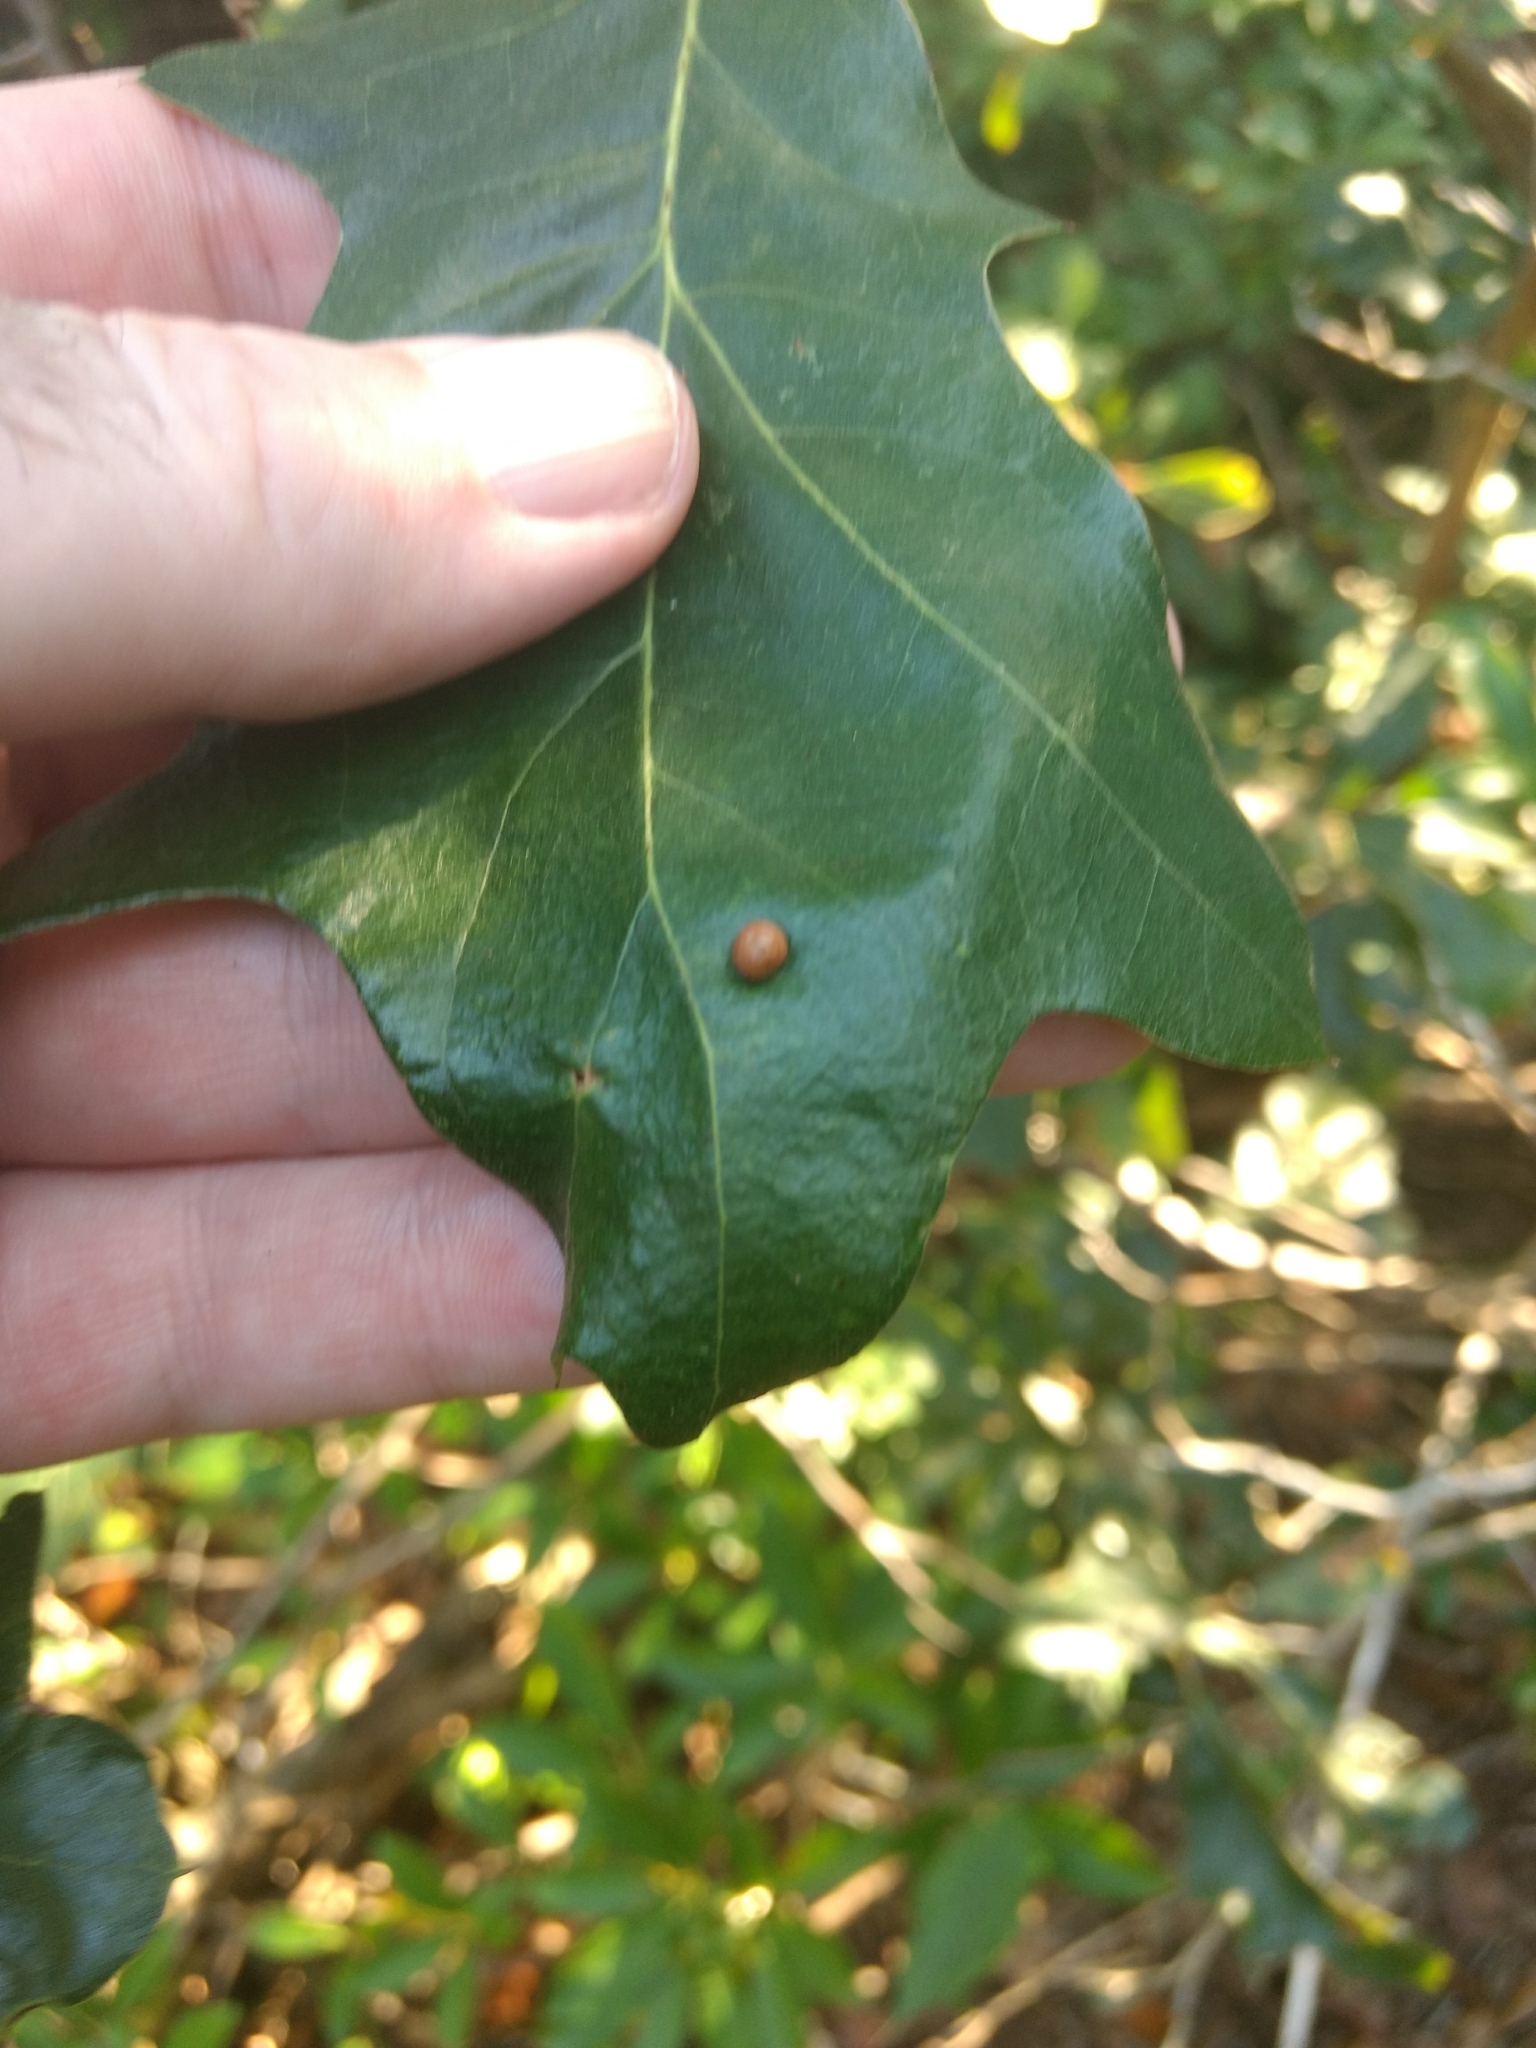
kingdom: Animalia
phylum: Arthropoda
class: Insecta
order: Diptera
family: Cecidomyiidae
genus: Polystepha
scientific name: Polystepha pilulae
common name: Oak leaf gall midge
